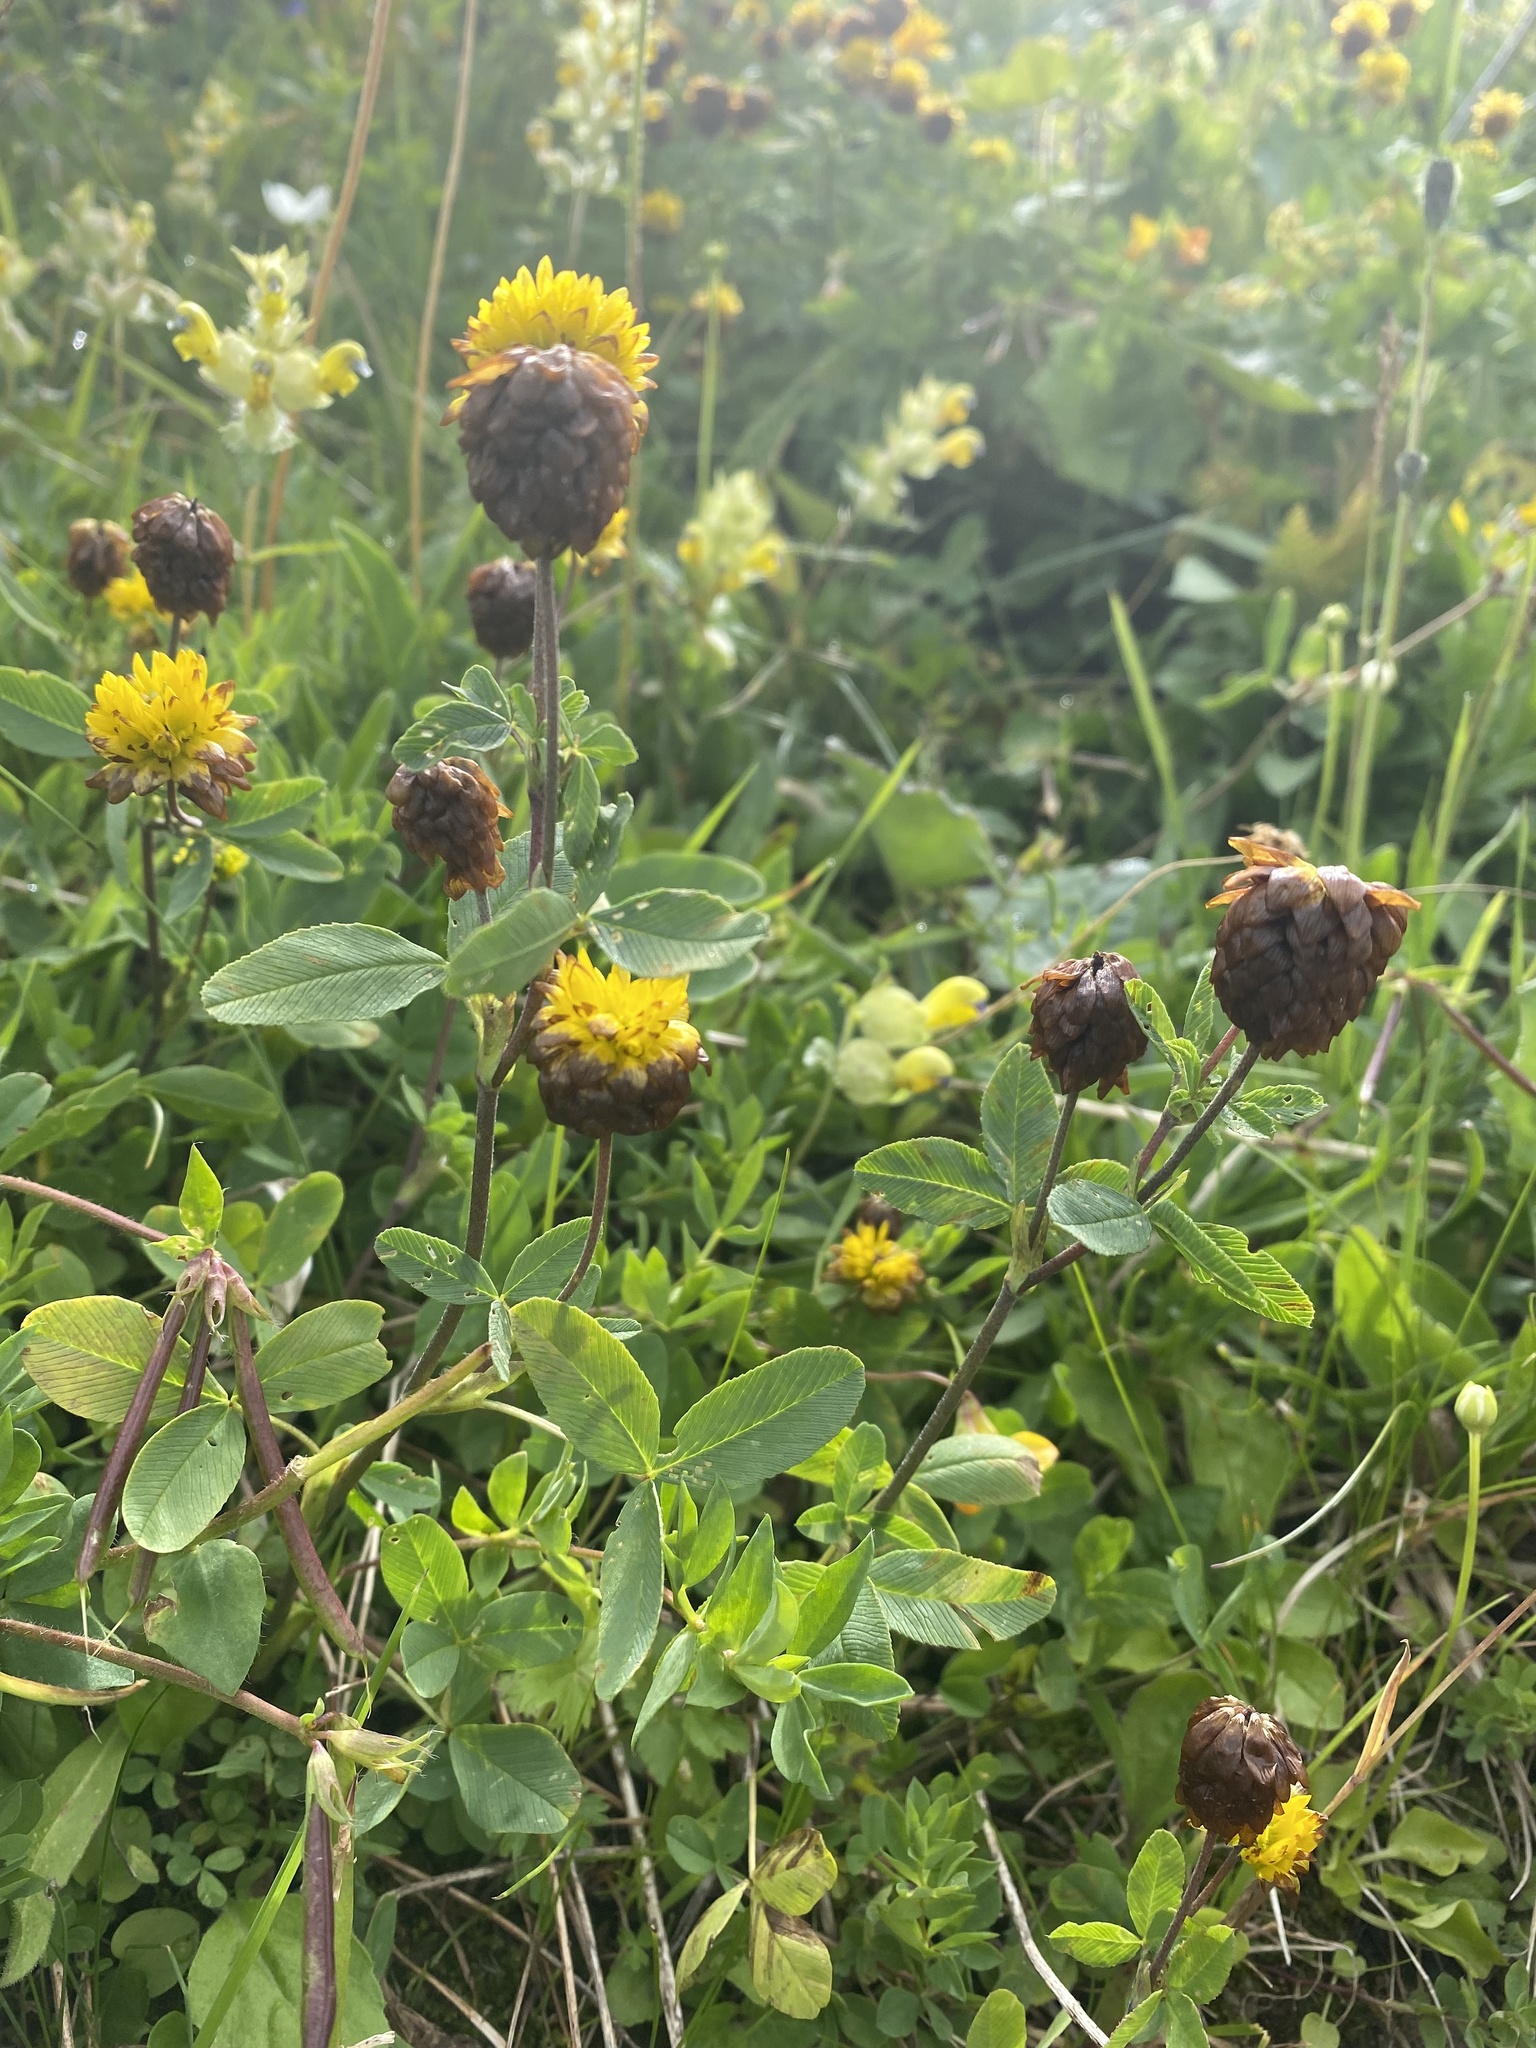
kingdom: Plantae
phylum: Tracheophyta
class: Magnoliopsida
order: Fabales
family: Fabaceae
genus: Trifolium
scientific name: Trifolium badium
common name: Brown clover
